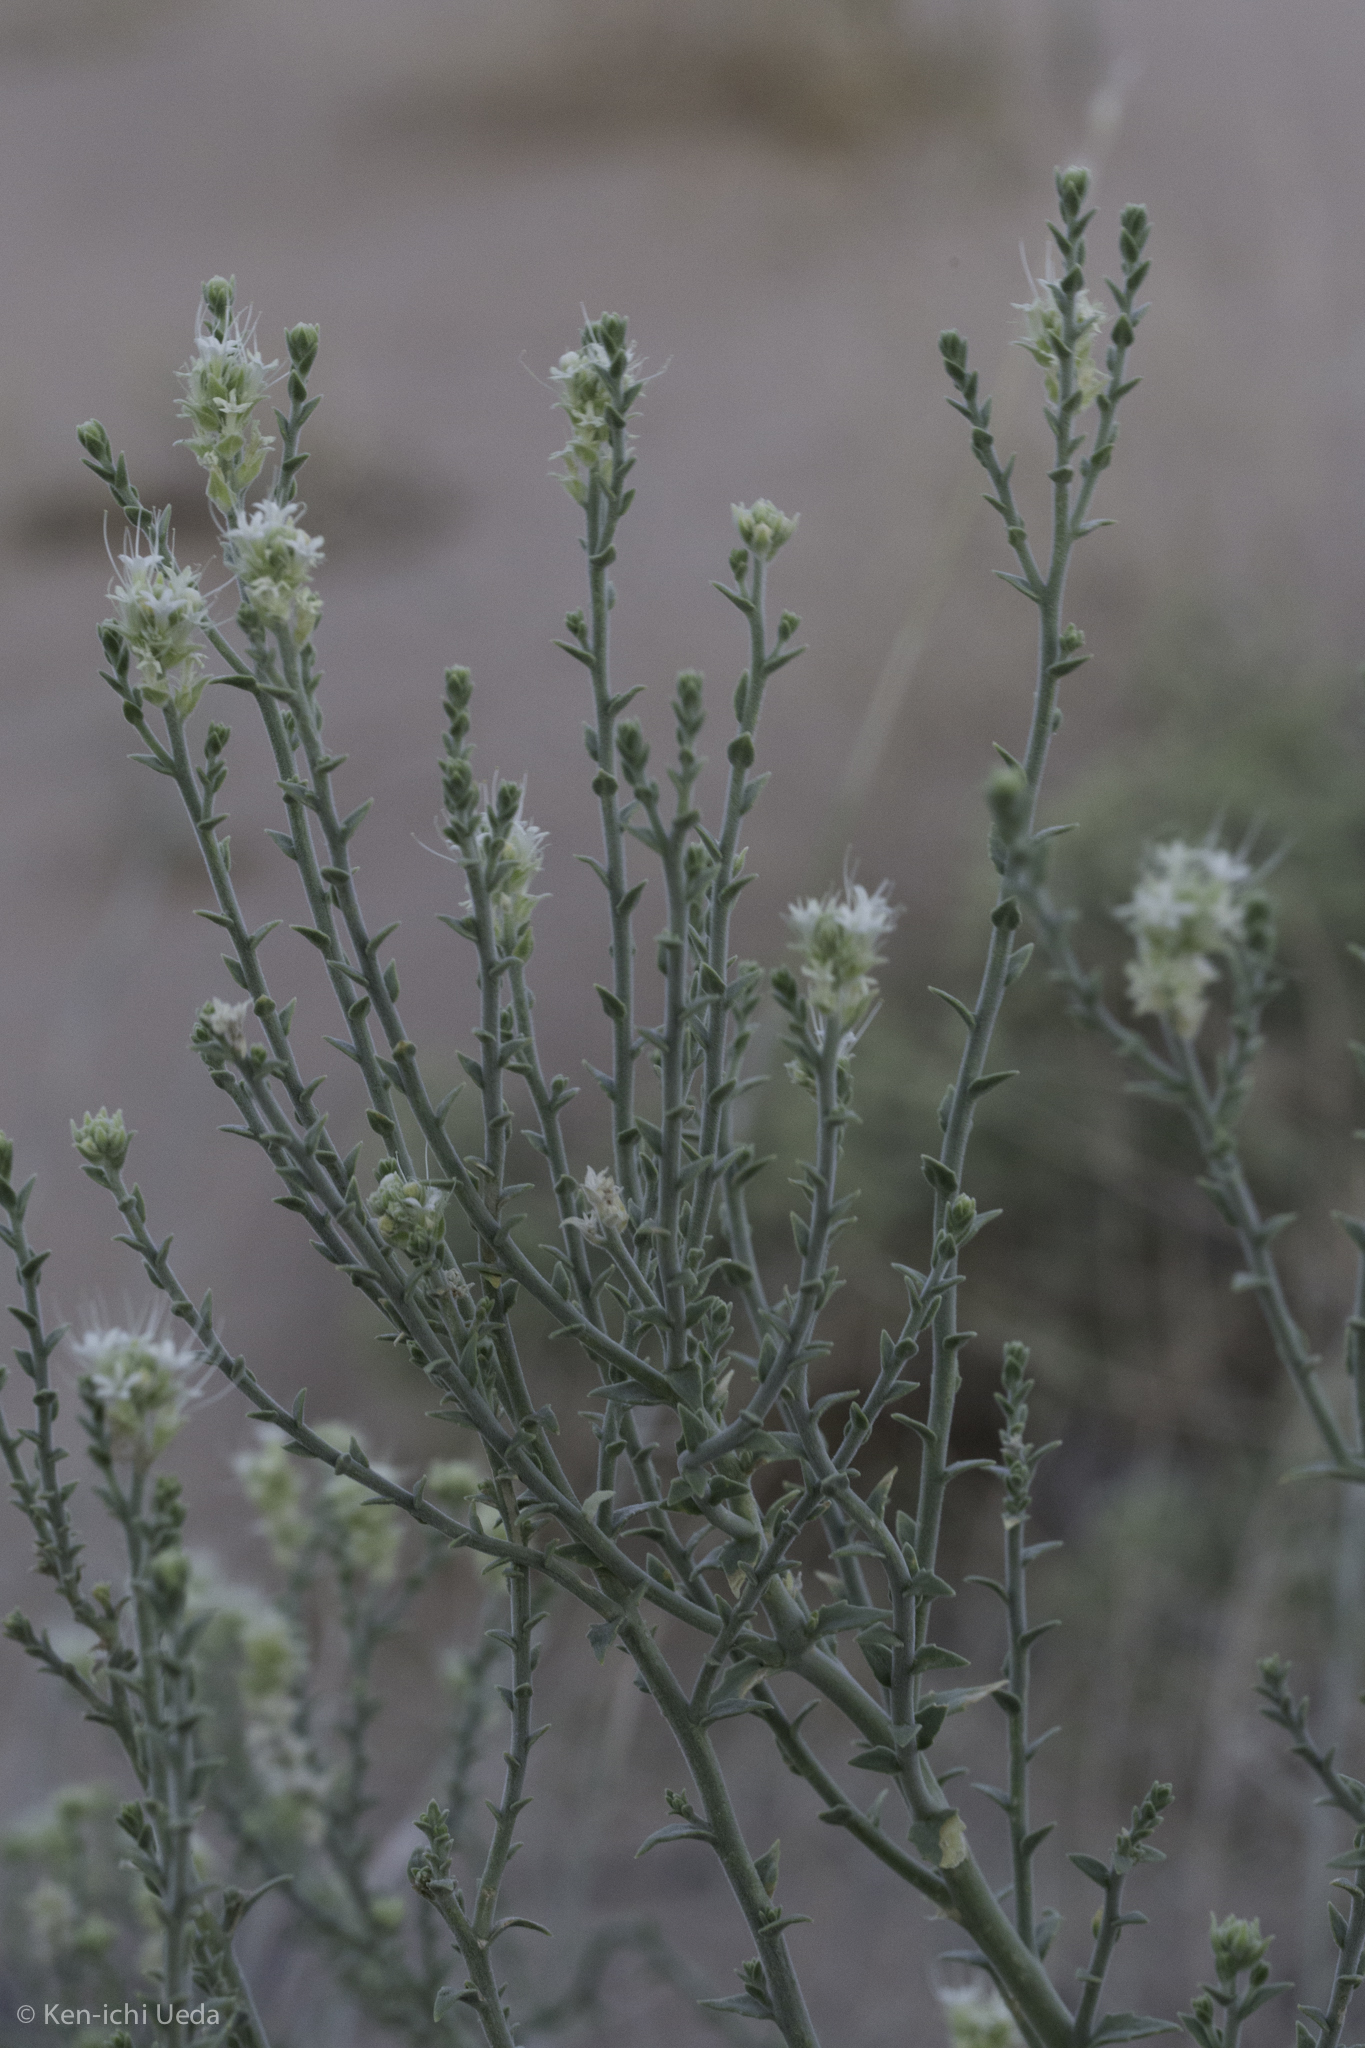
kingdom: Plantae
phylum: Tracheophyta
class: Magnoliopsida
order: Cornales
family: Loasaceae
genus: Petalonyx
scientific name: Petalonyx thurberi
